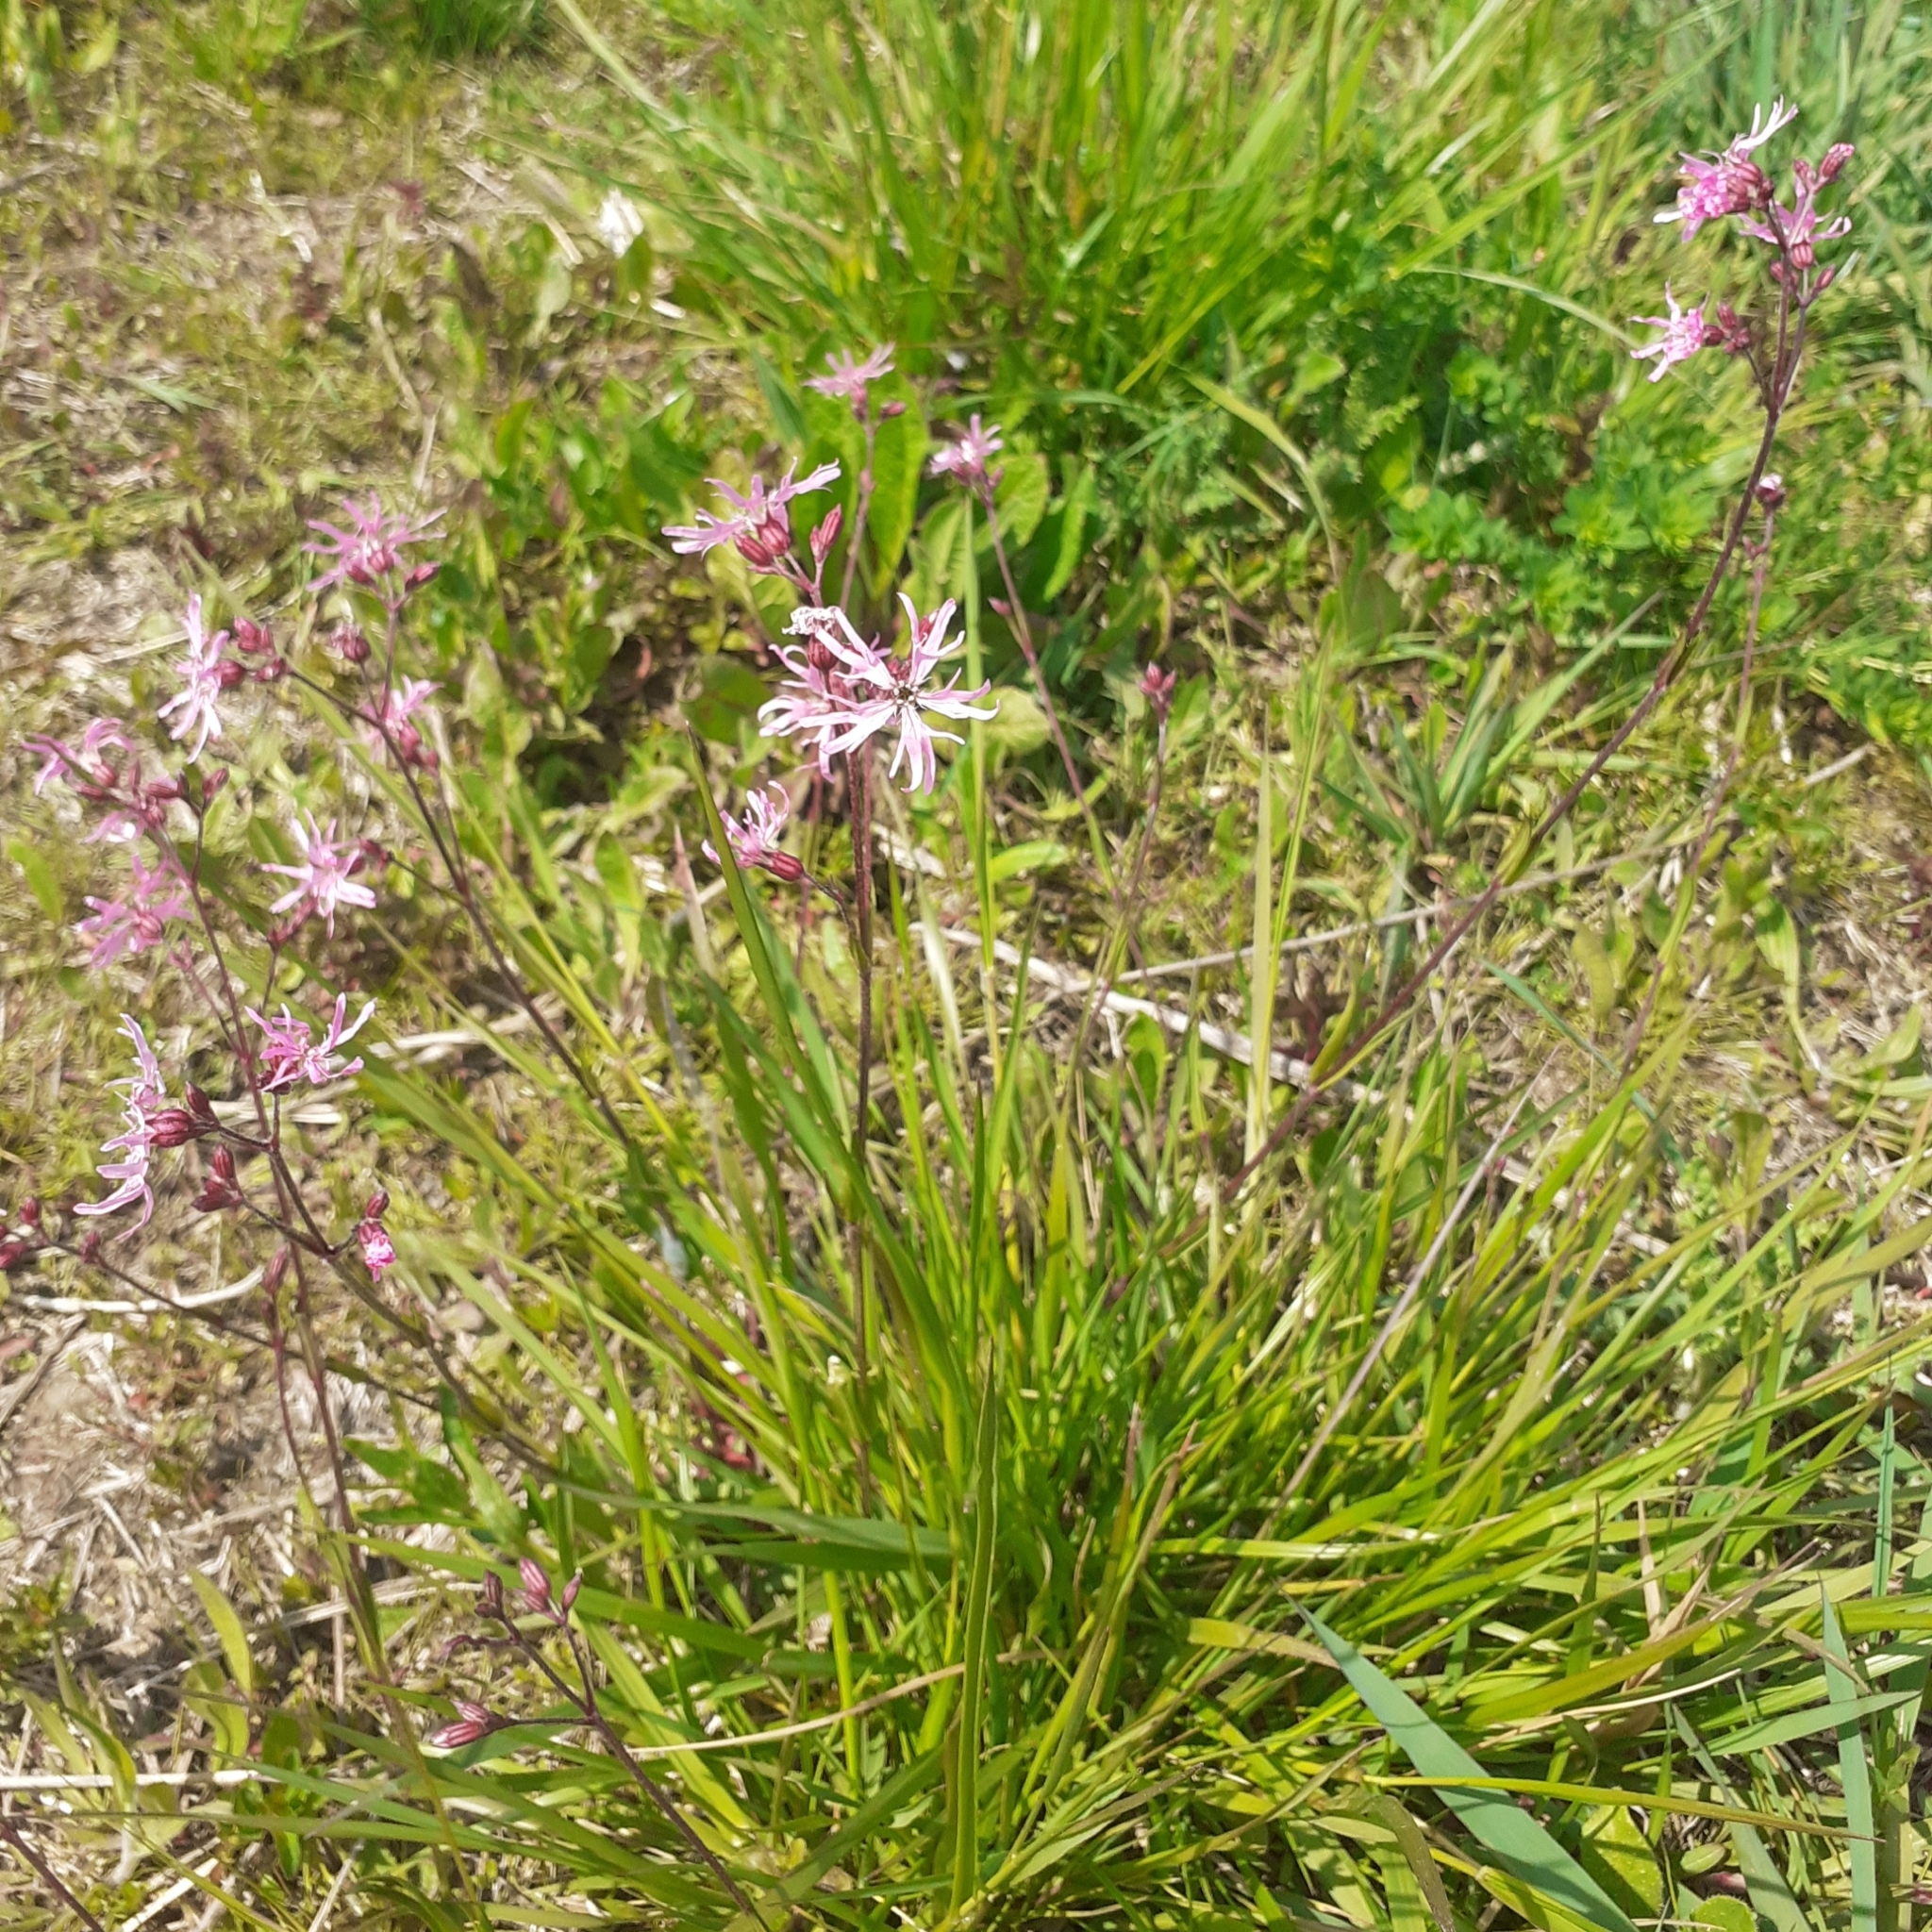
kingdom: Plantae
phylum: Tracheophyta
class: Magnoliopsida
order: Caryophyllales
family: Caryophyllaceae
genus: Silene
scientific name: Silene flos-cuculi
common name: Ragged-robin
